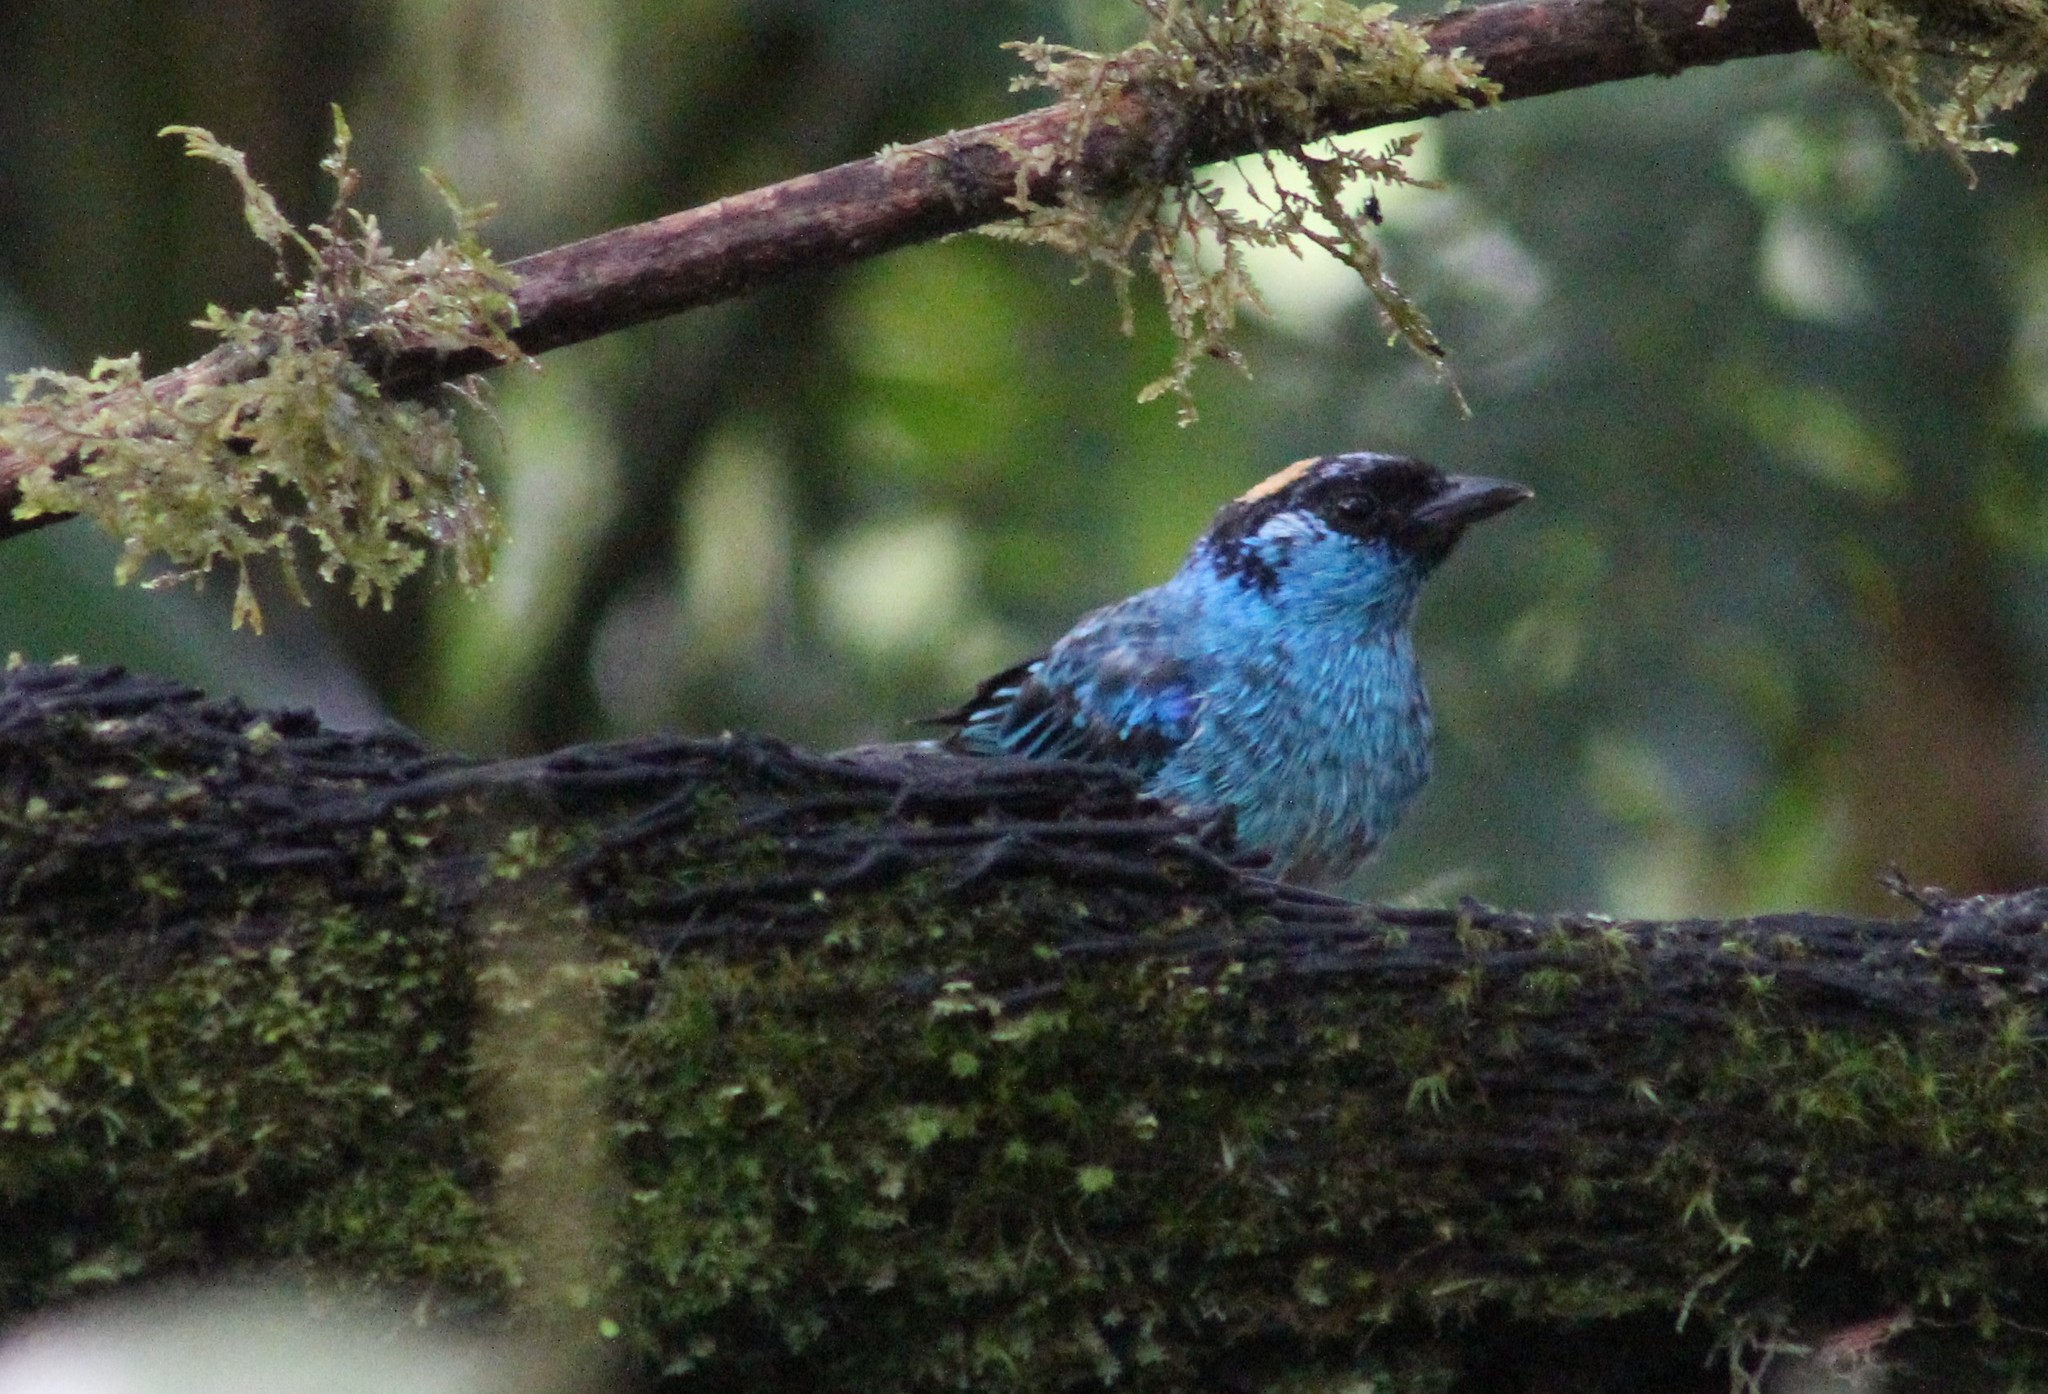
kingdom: Animalia
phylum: Chordata
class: Aves
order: Passeriformes
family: Thraupidae
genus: Chalcothraupis
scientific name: Chalcothraupis ruficervix
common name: Golden-naped tanager
